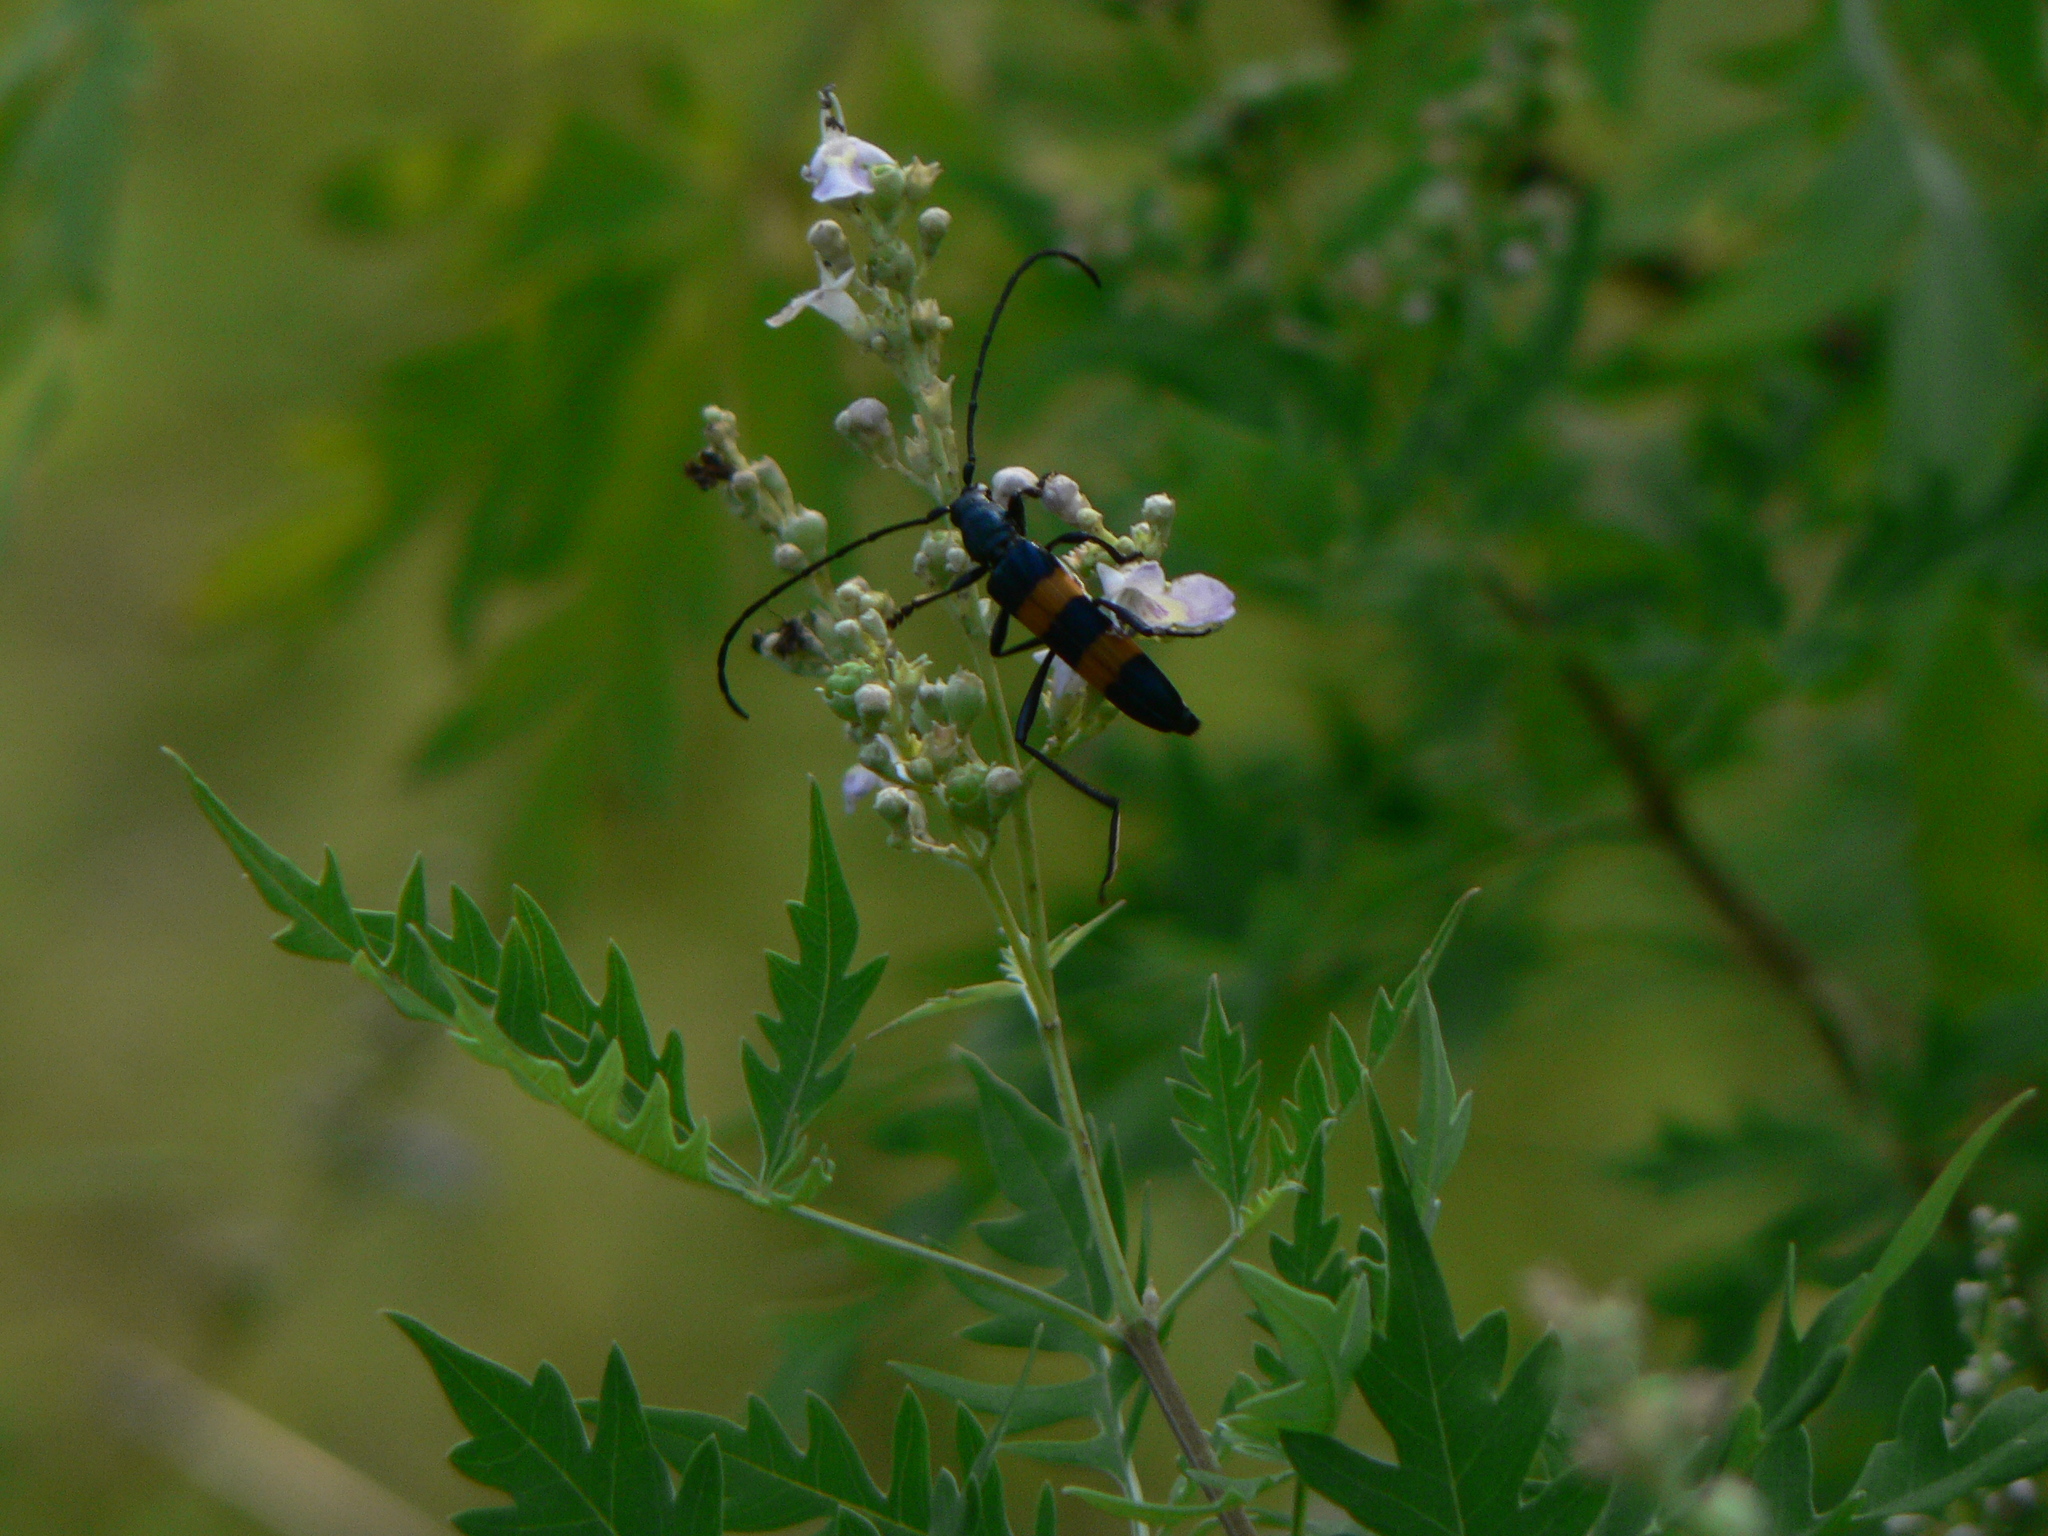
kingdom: Animalia
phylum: Arthropoda
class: Insecta
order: Coleoptera
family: Cerambycidae
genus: Polyzonus
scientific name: Polyzonus fasciatus
